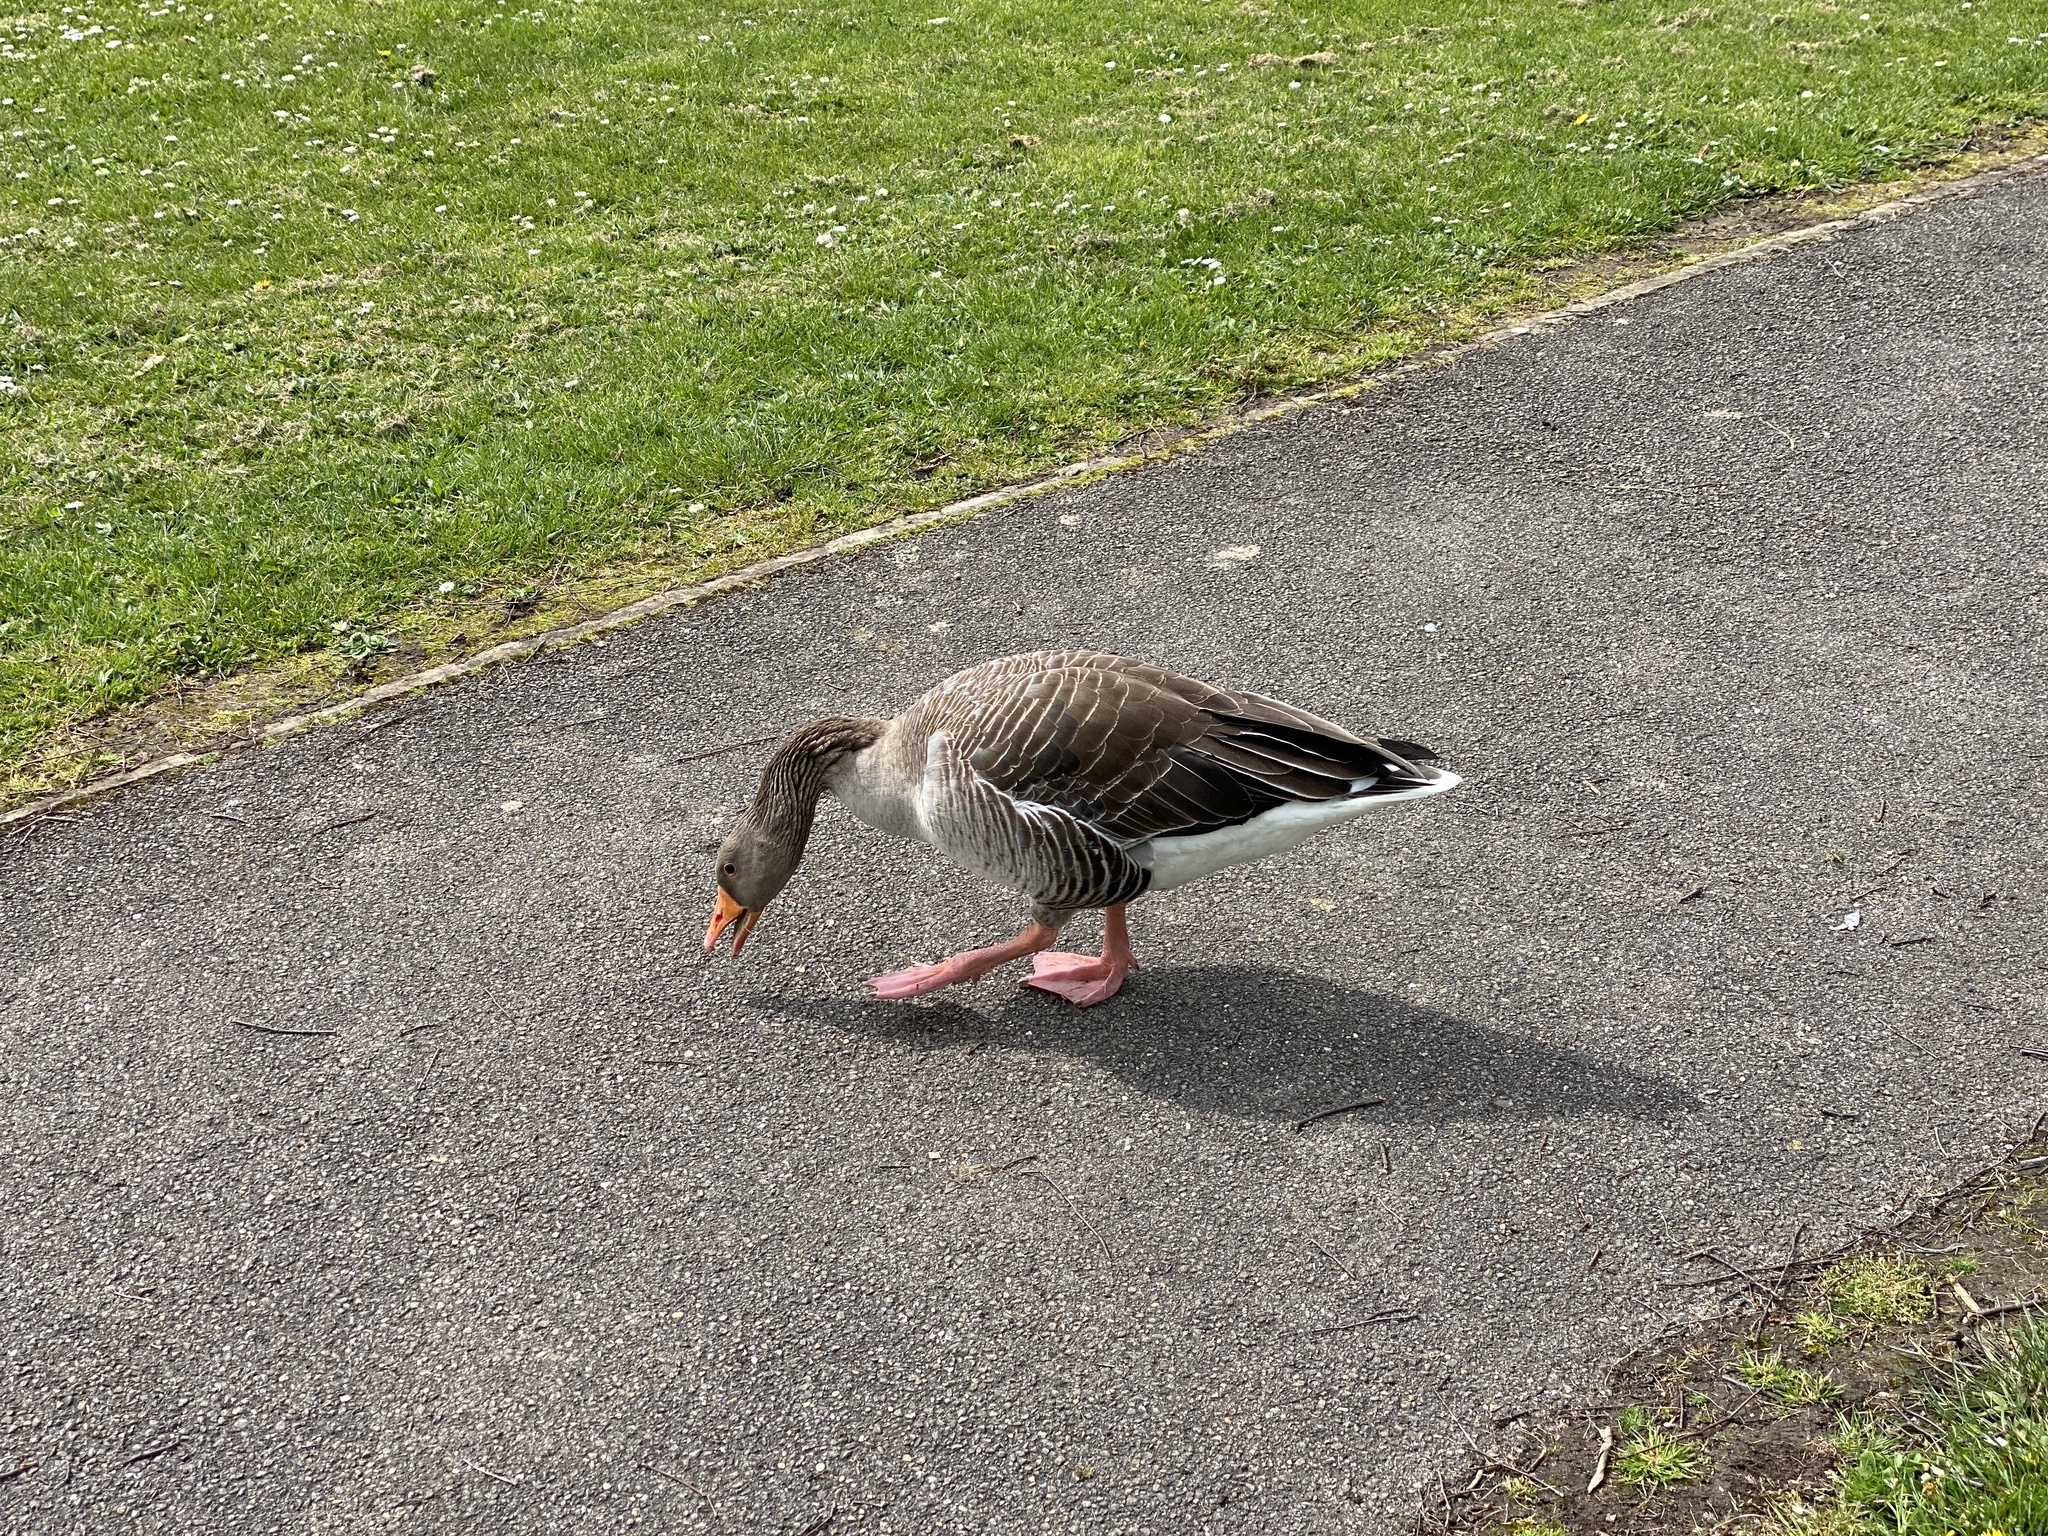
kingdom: Animalia
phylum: Chordata
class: Aves
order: Anseriformes
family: Anatidae
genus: Anser
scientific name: Anser anser
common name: Greylag goose
